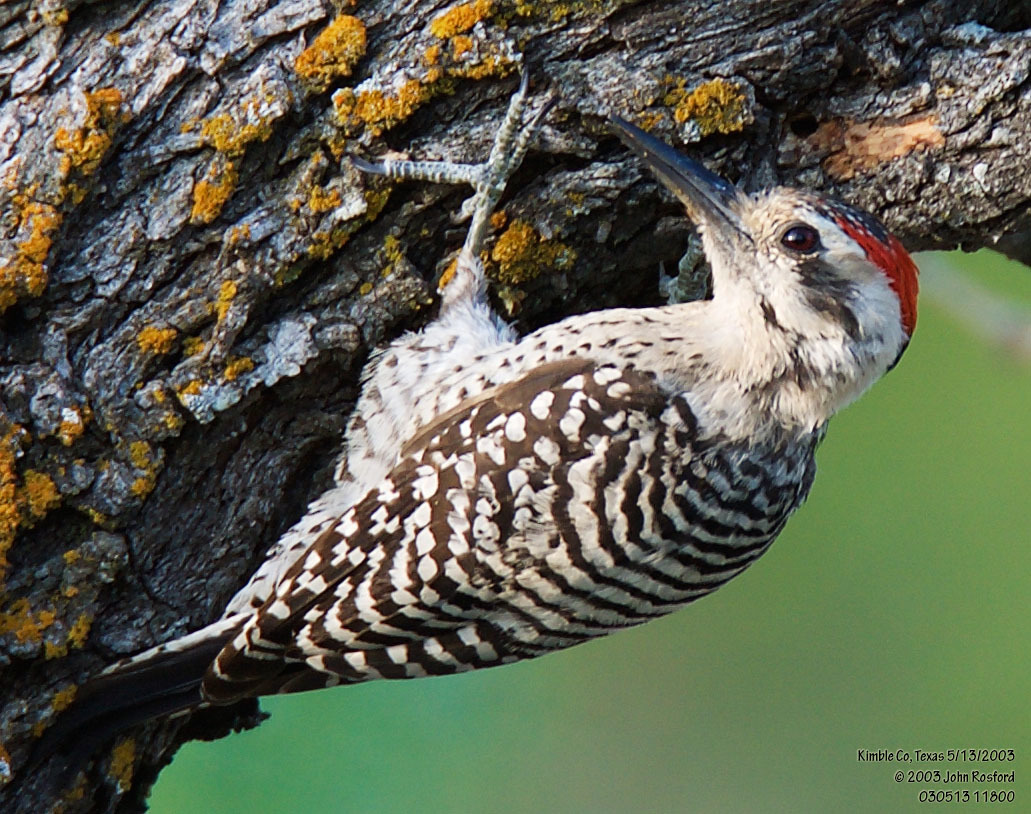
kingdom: Animalia
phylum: Chordata
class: Aves
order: Piciformes
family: Picidae
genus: Dryobates
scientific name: Dryobates scalaris
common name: Ladder-backed woodpecker
